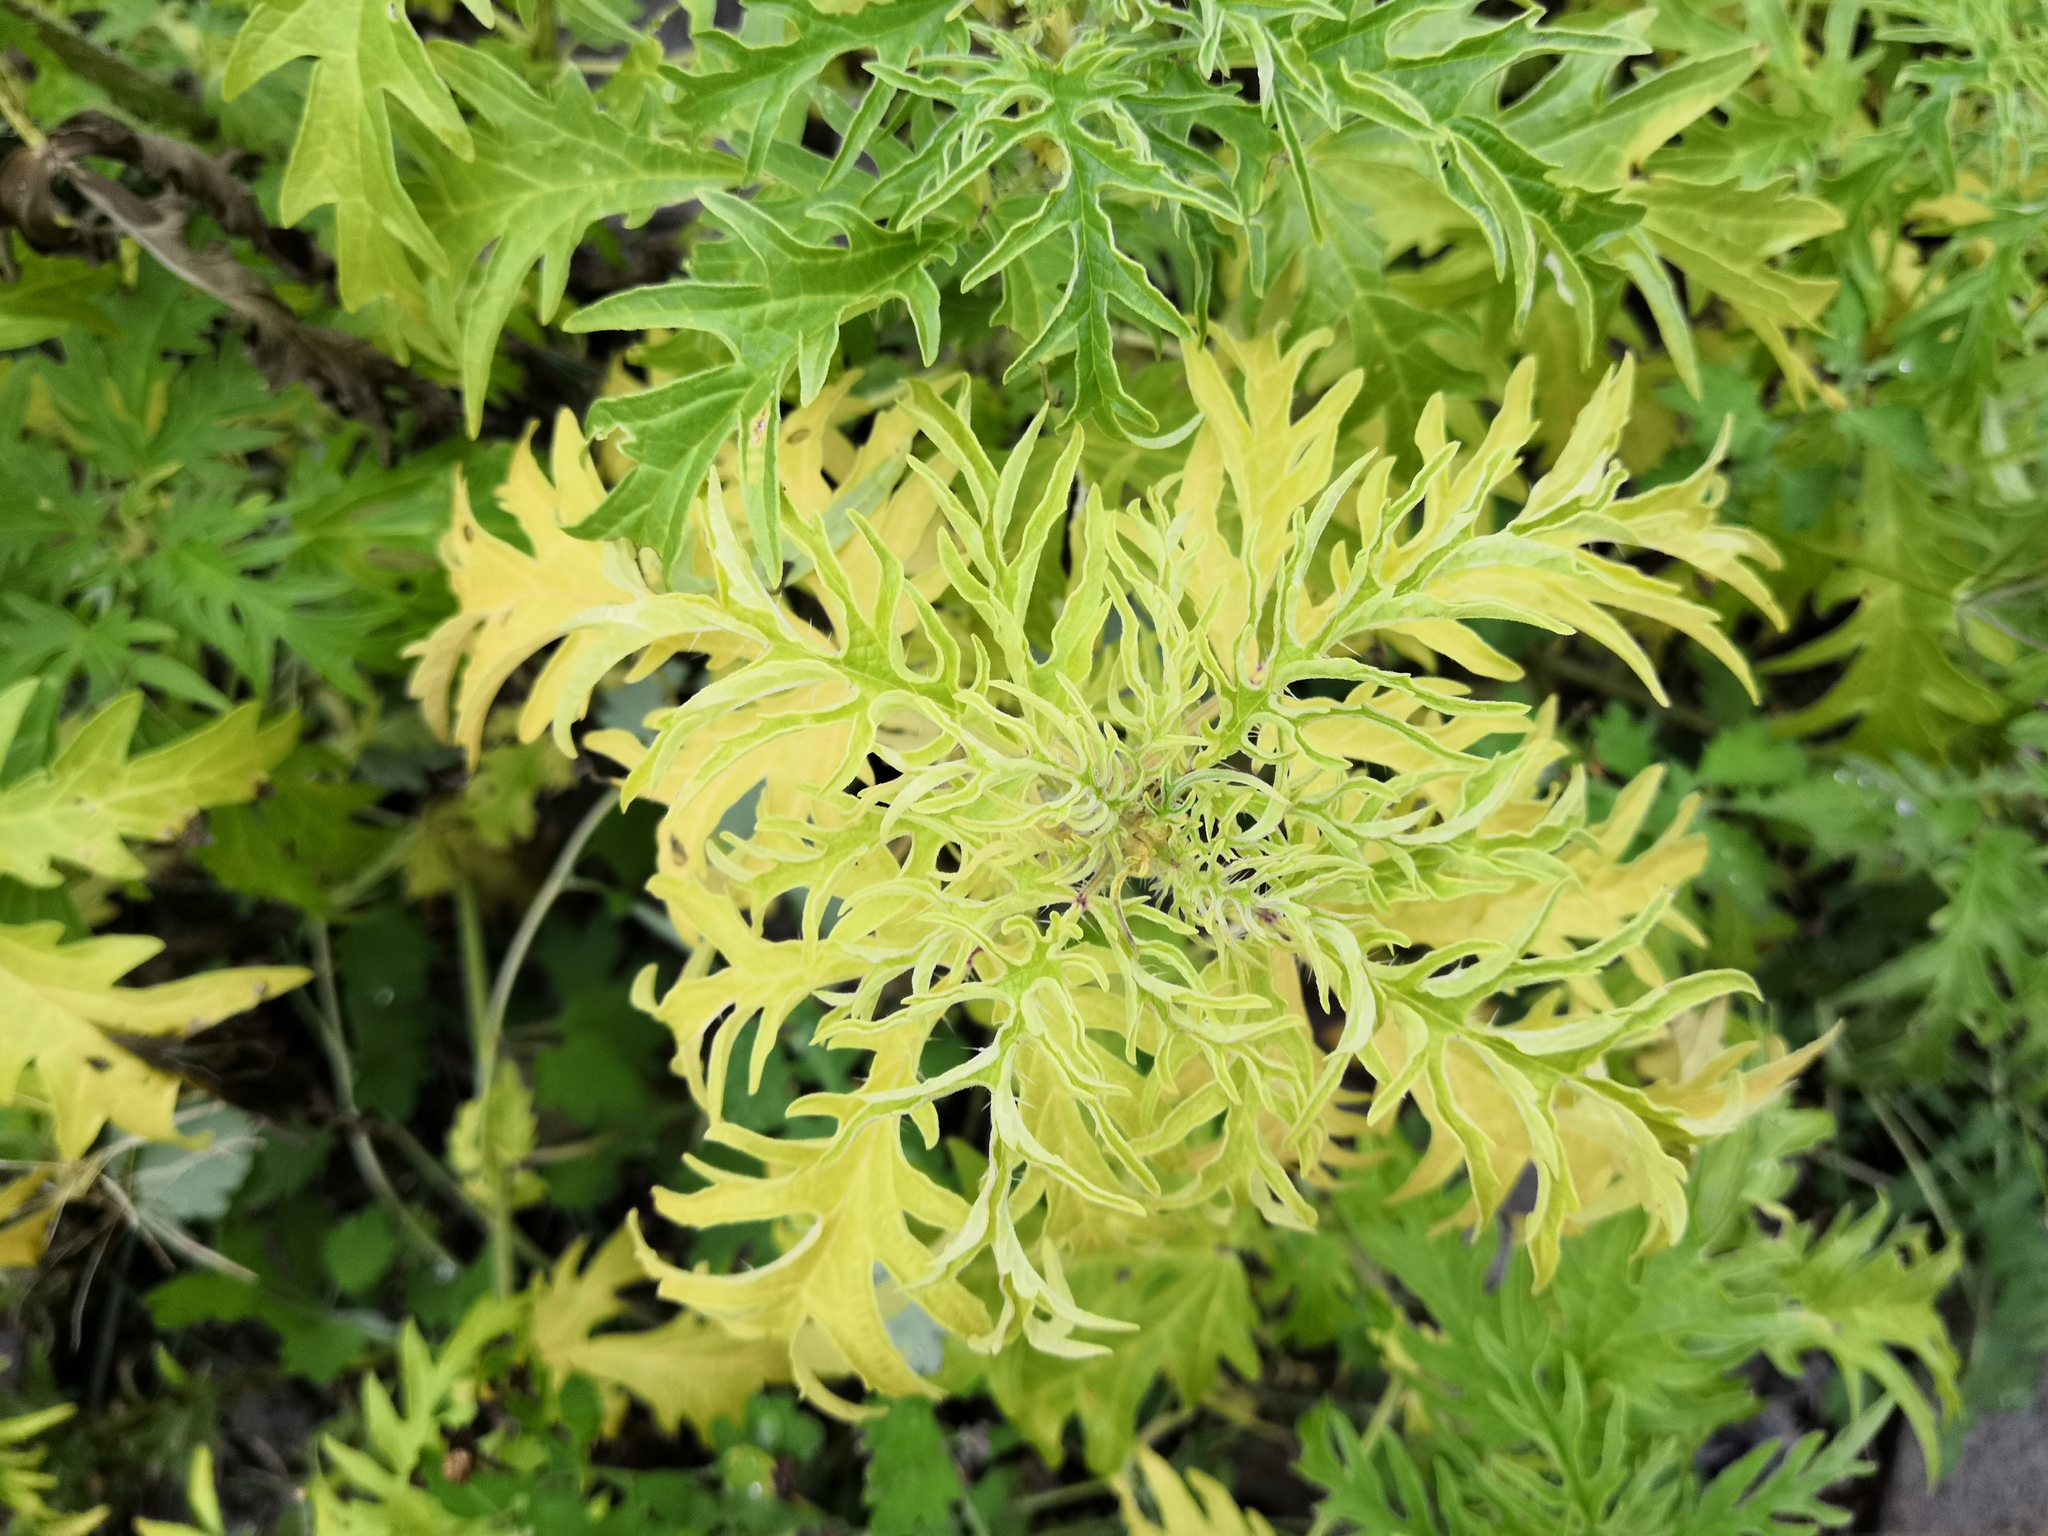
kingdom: Plantae
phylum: Tracheophyta
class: Magnoliopsida
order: Rosales
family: Urticaceae
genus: Urtica
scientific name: Urtica cannabina
